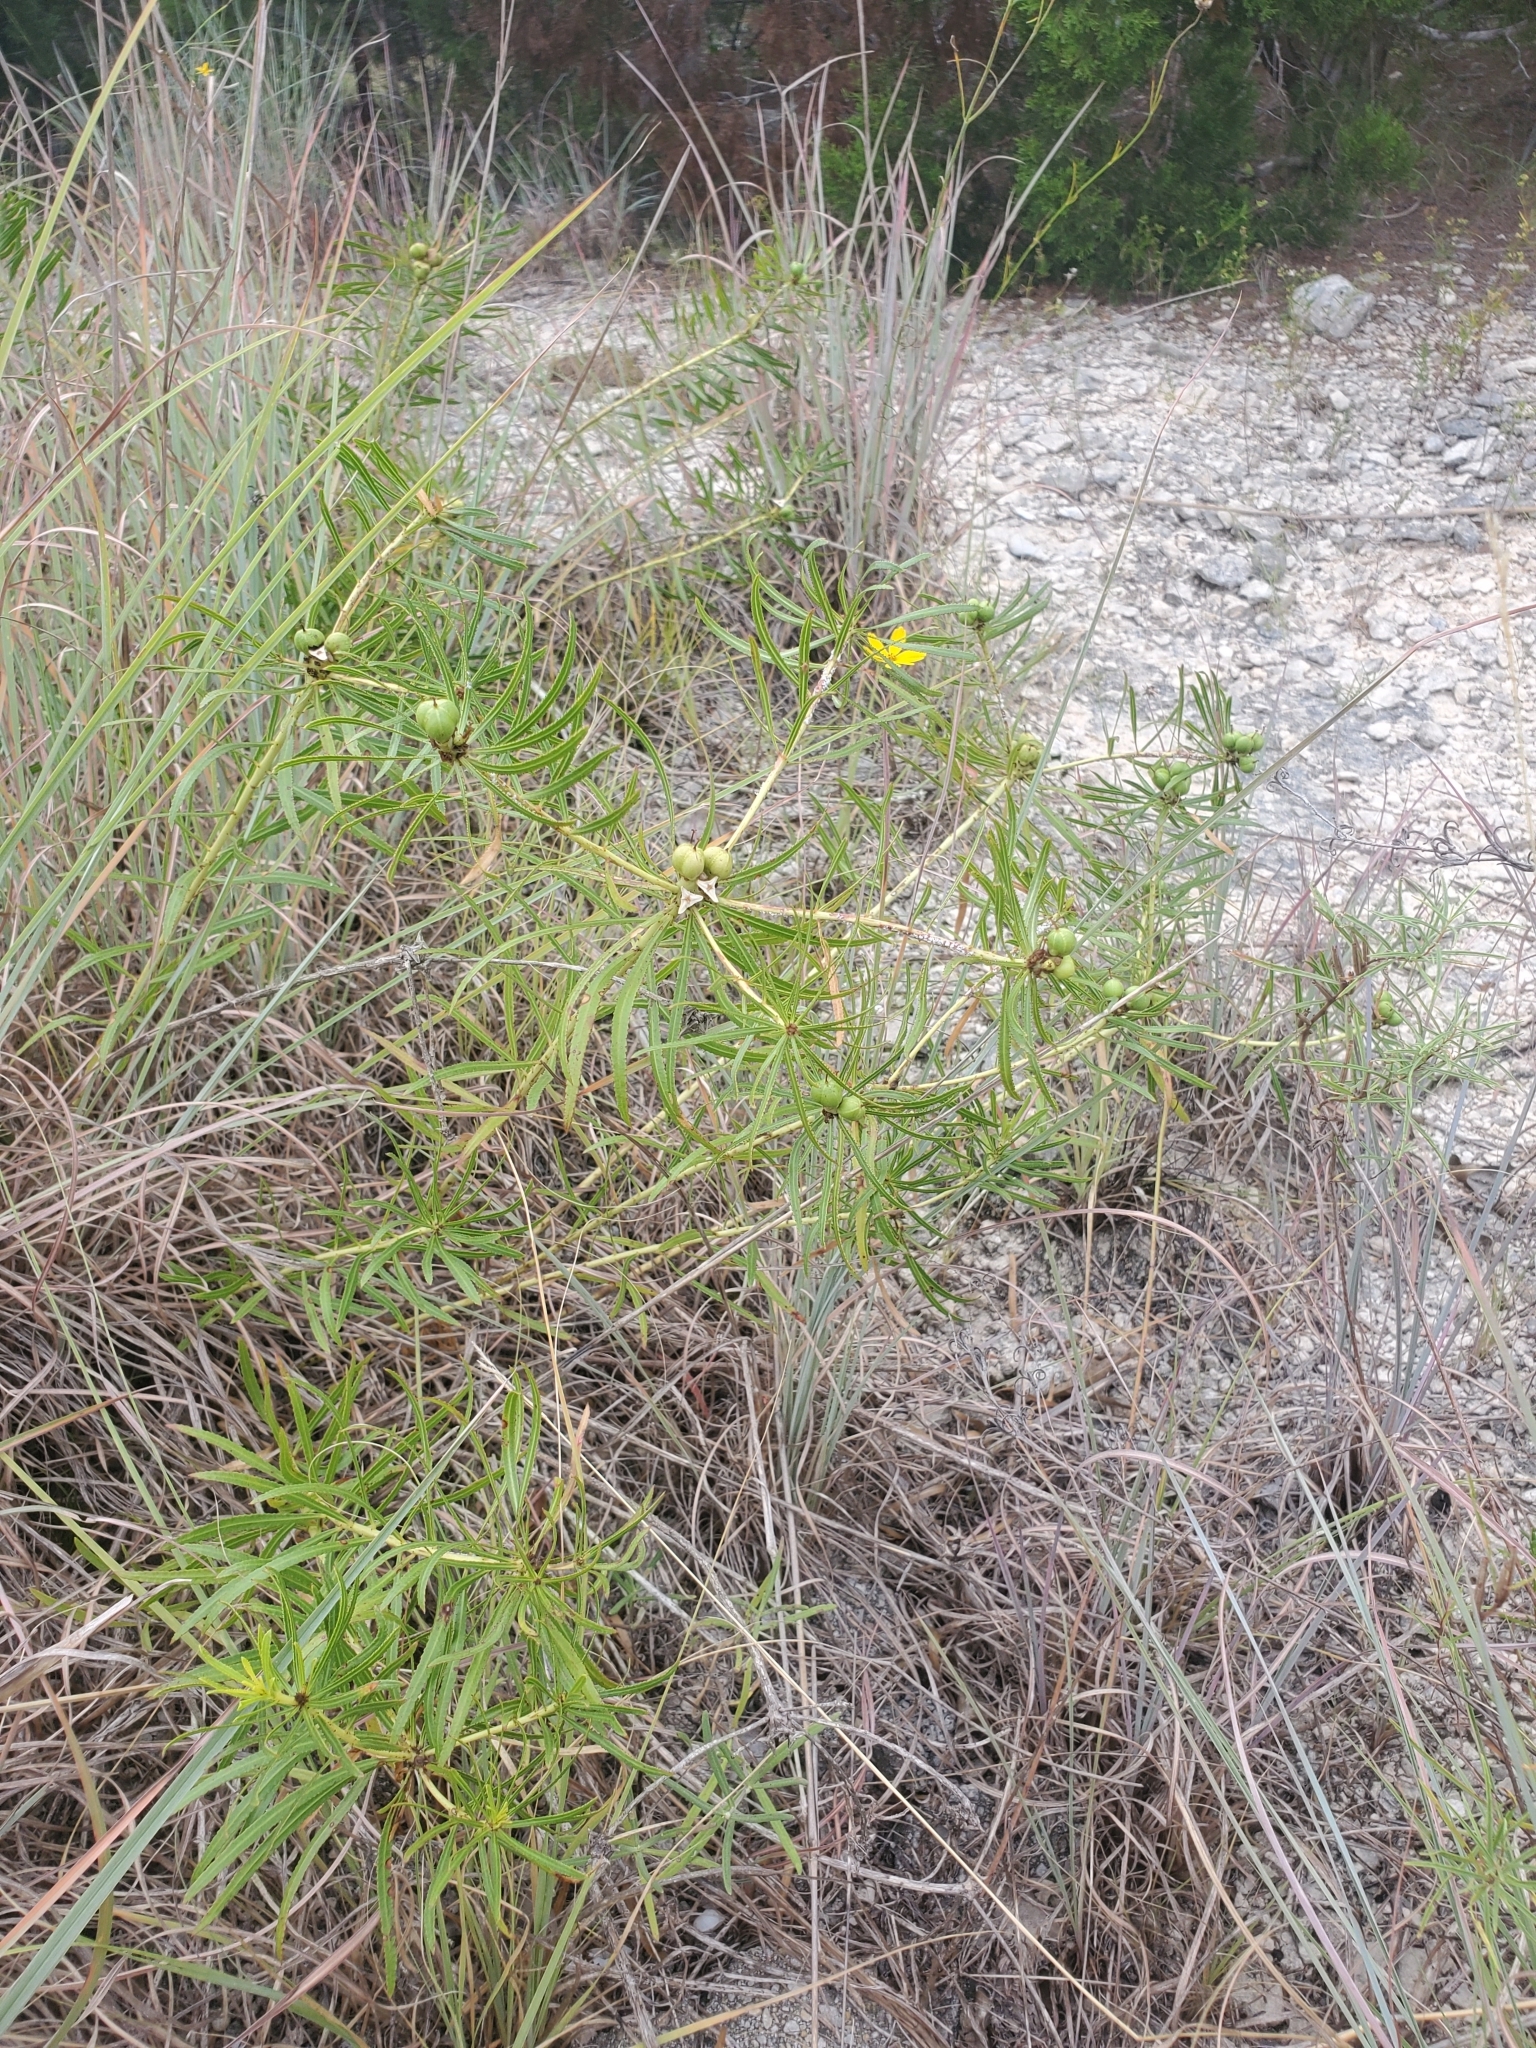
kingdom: Plantae
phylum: Tracheophyta
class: Magnoliopsida
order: Malpighiales
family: Euphorbiaceae
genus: Stillingia
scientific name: Stillingia texana
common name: Texas stillingia
